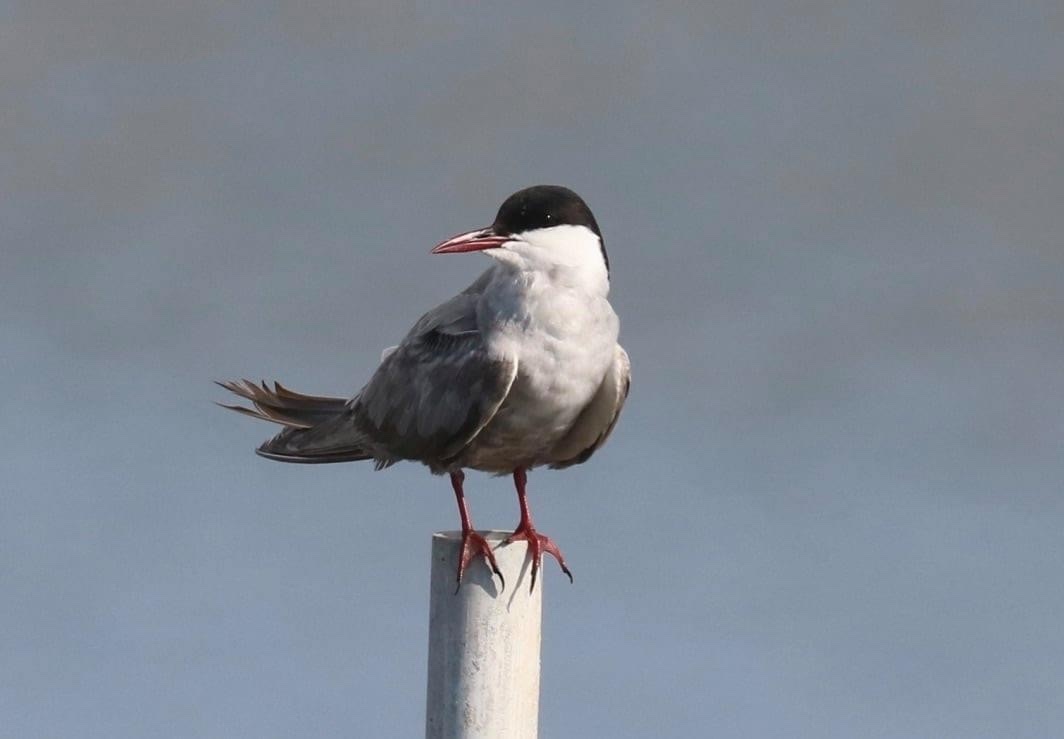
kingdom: Animalia
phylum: Chordata
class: Aves
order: Charadriiformes
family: Laridae
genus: Chlidonias
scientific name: Chlidonias hybrida
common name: Whiskered tern
